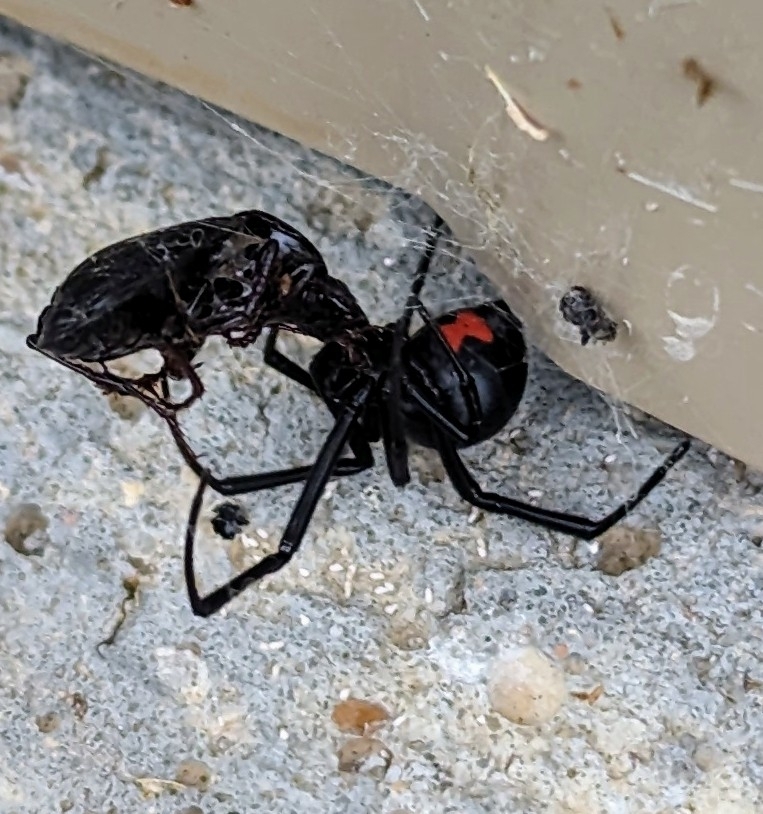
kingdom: Animalia
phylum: Arthropoda
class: Arachnida
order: Araneae
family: Theridiidae
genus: Latrodectus
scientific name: Latrodectus mactans
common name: Cobweb spiders
